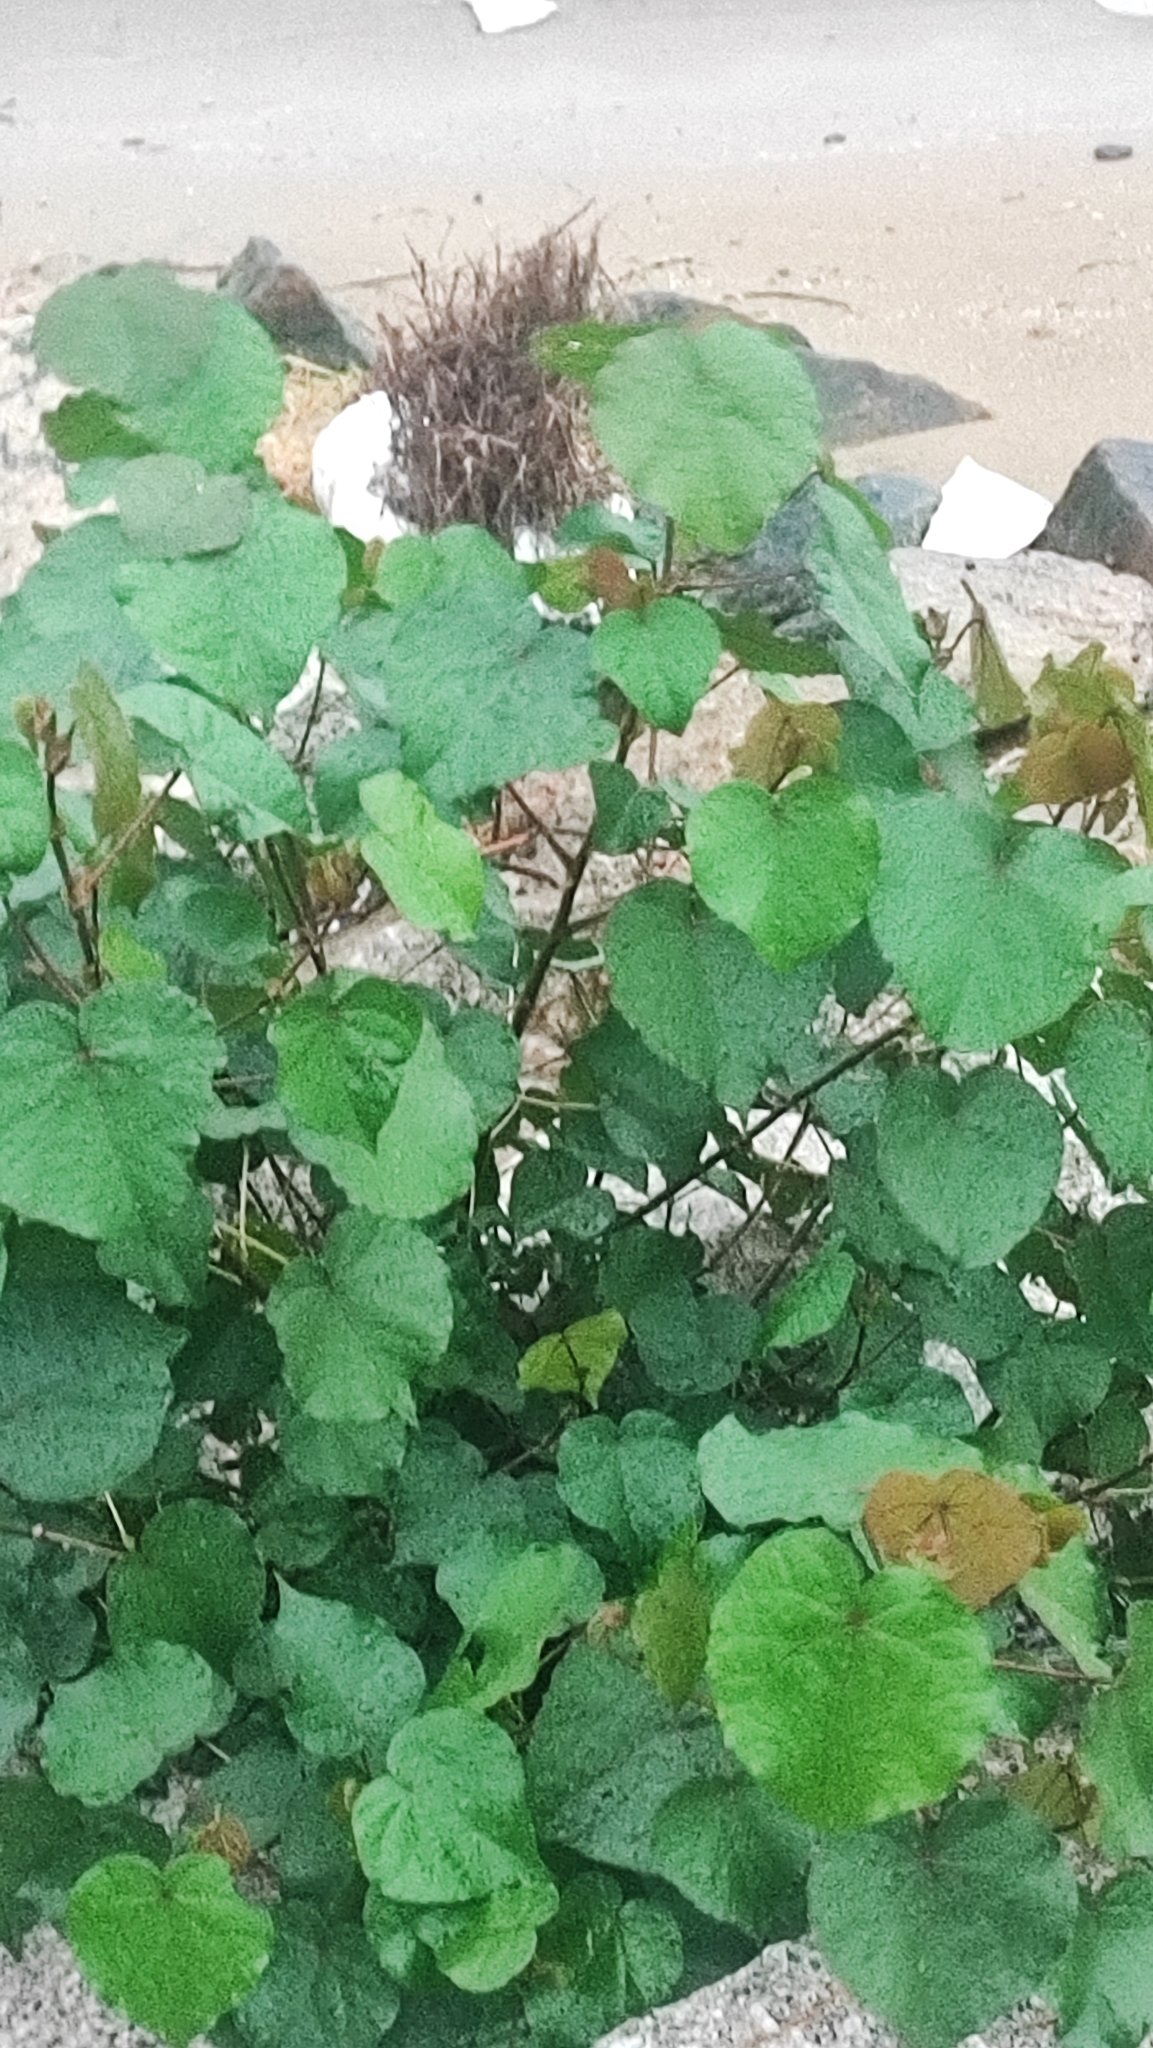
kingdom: Plantae
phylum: Tracheophyta
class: Magnoliopsida
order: Malvales
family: Malvaceae
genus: Talipariti
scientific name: Talipariti tiliaceum
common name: Sea hibiscus
